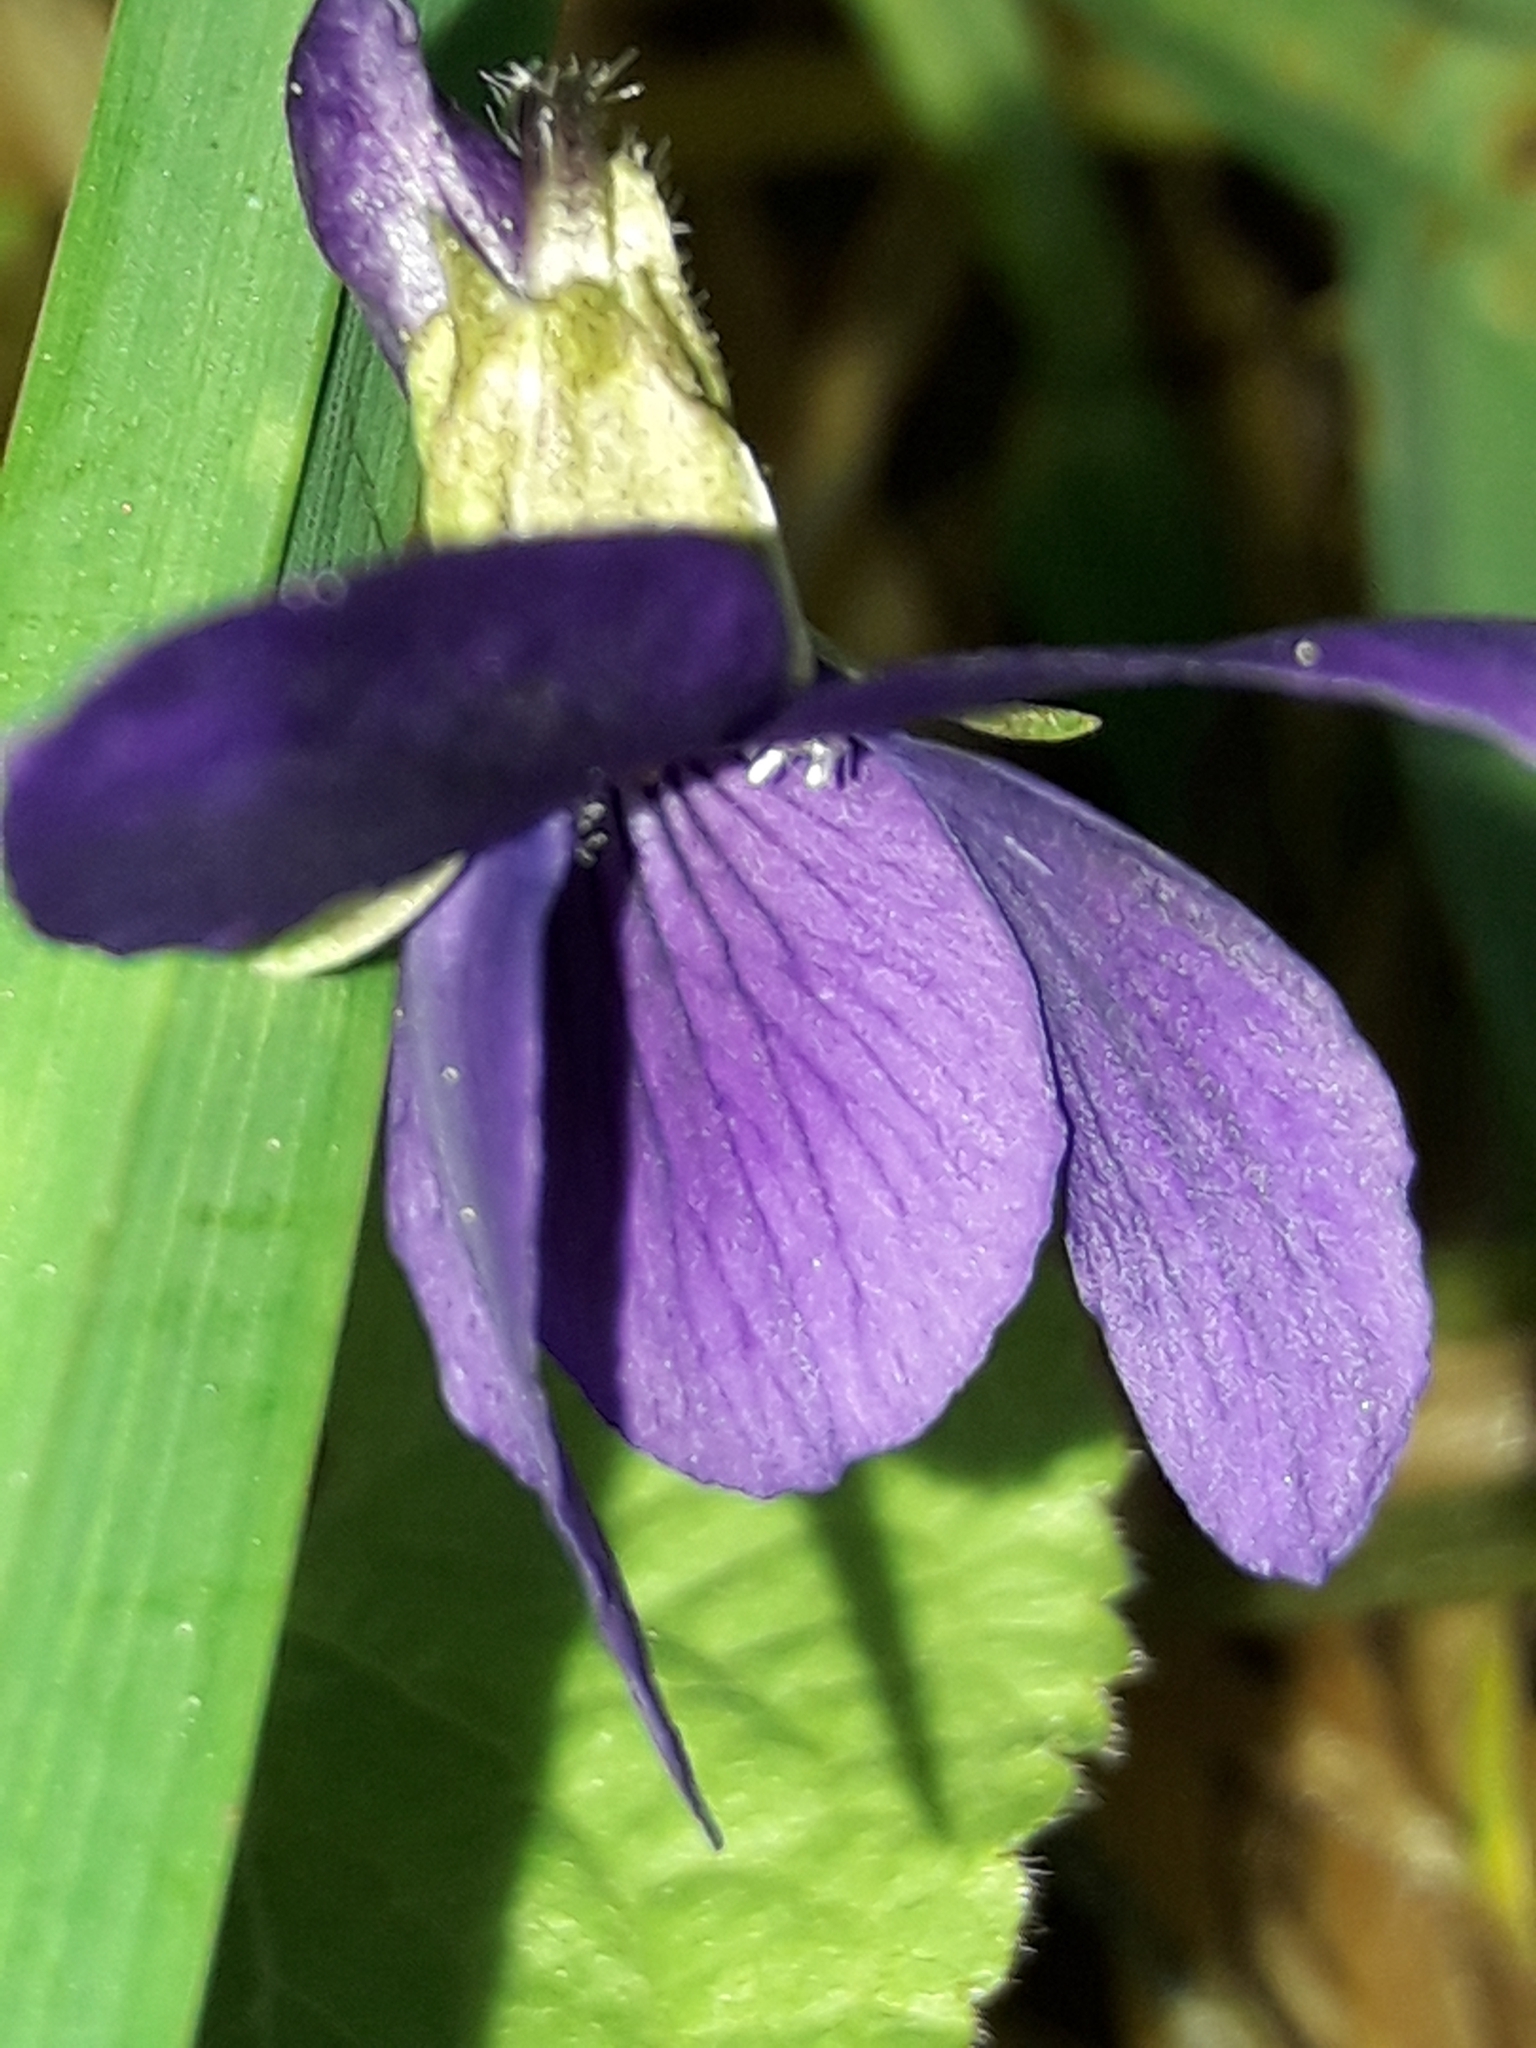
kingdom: Plantae
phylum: Tracheophyta
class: Magnoliopsida
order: Malpighiales
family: Violaceae
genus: Viola
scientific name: Viola odorata
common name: Sweet violet
